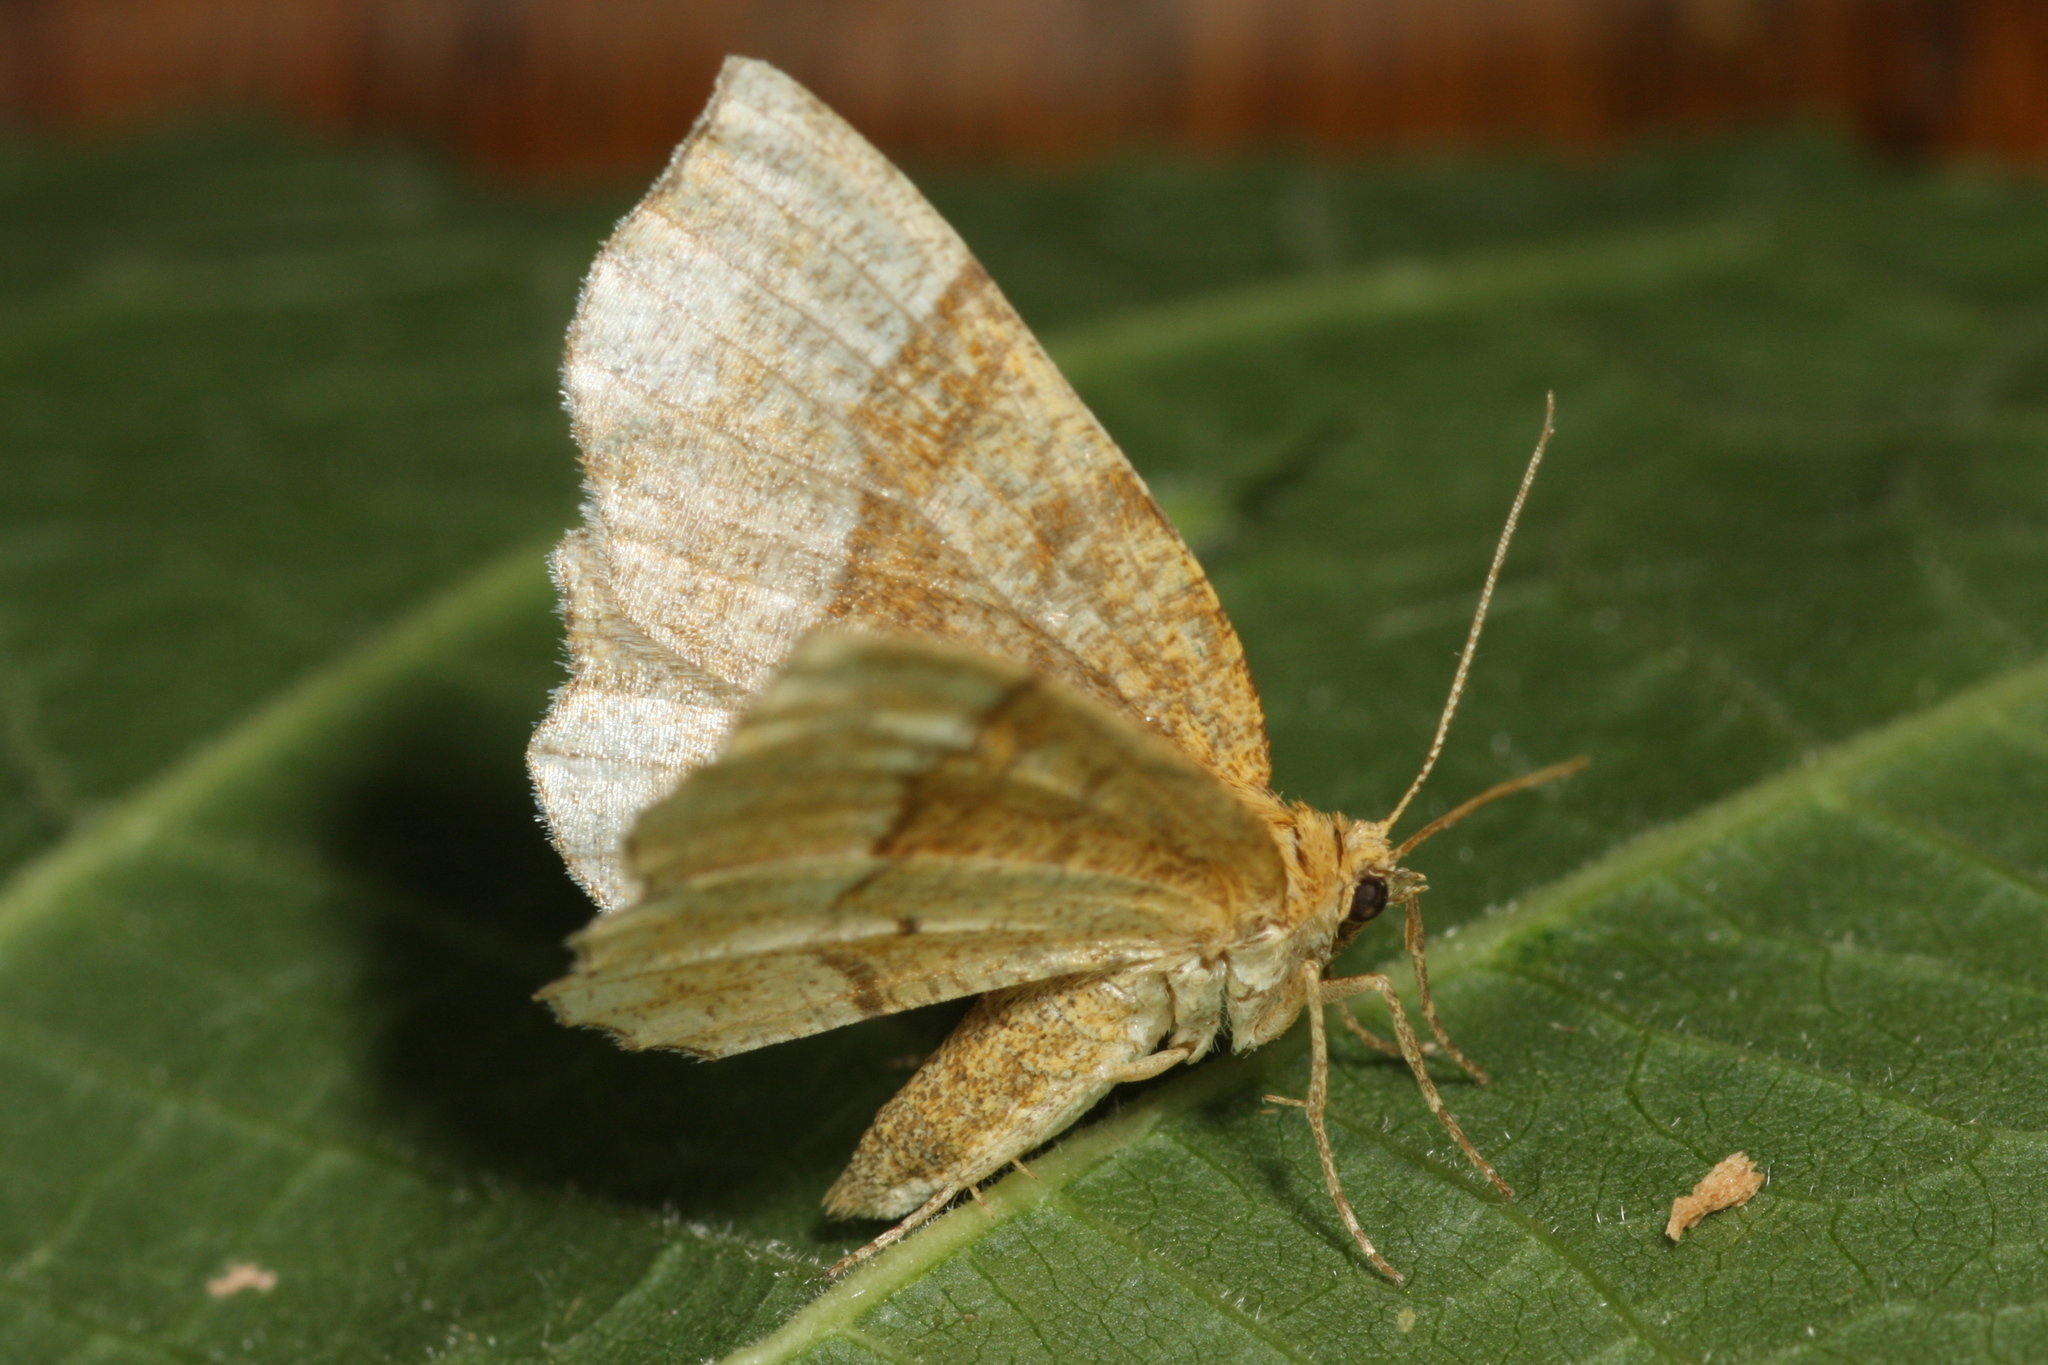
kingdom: Animalia
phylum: Arthropoda
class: Insecta
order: Lepidoptera
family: Geometridae
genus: Cepphis
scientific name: Cepphis advenaria
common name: Little thorn
